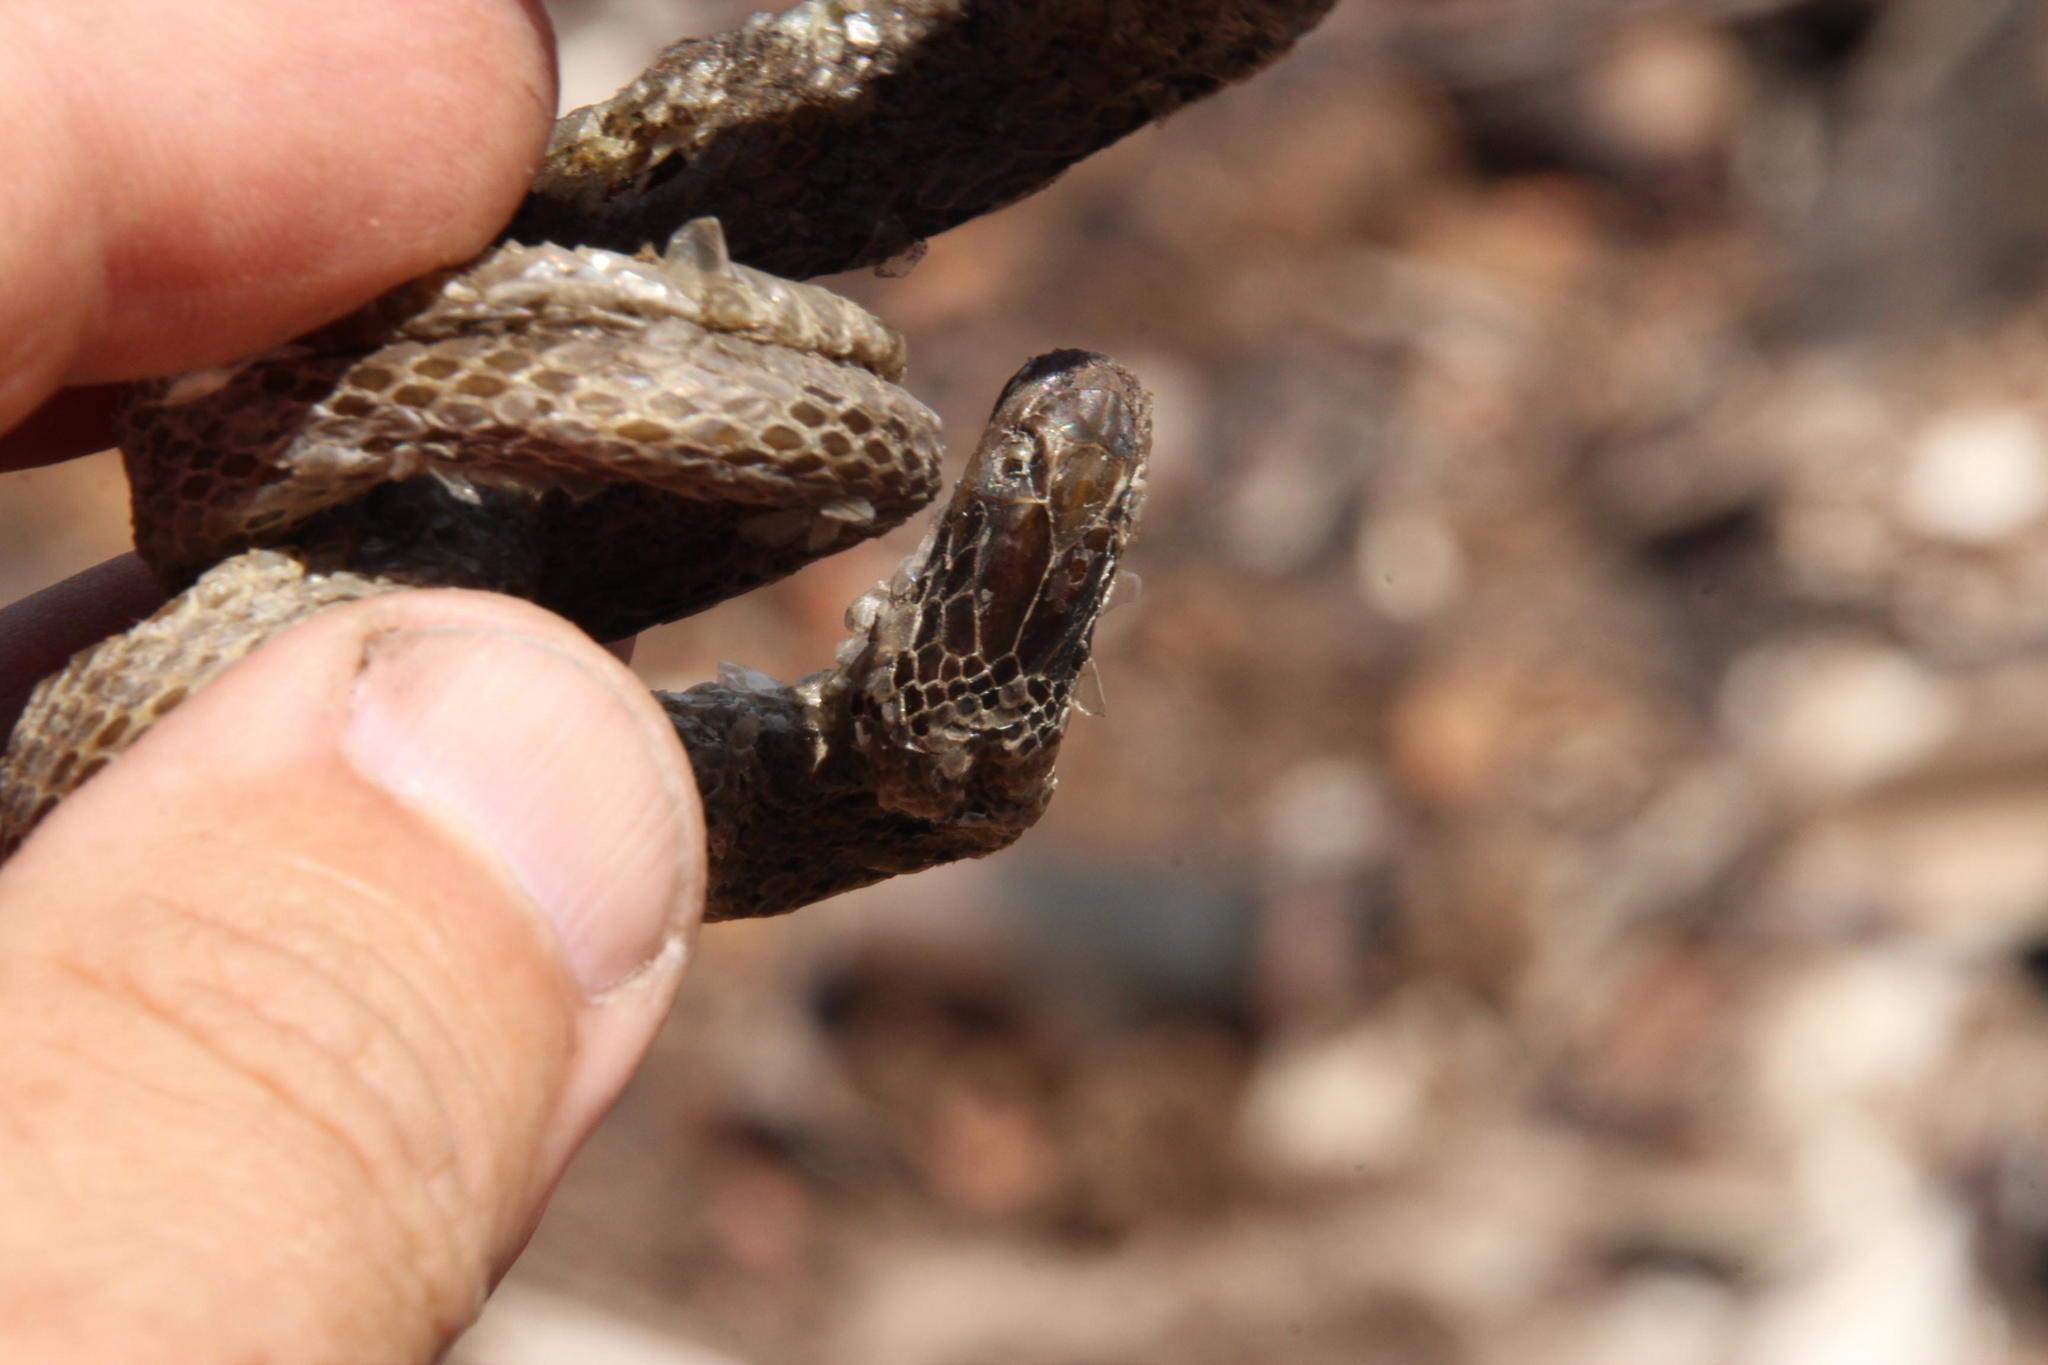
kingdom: Animalia
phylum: Chordata
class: Squamata
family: Colubridae
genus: Crotaphopeltis
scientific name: Crotaphopeltis hotamboeia
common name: Red-lipped snake
